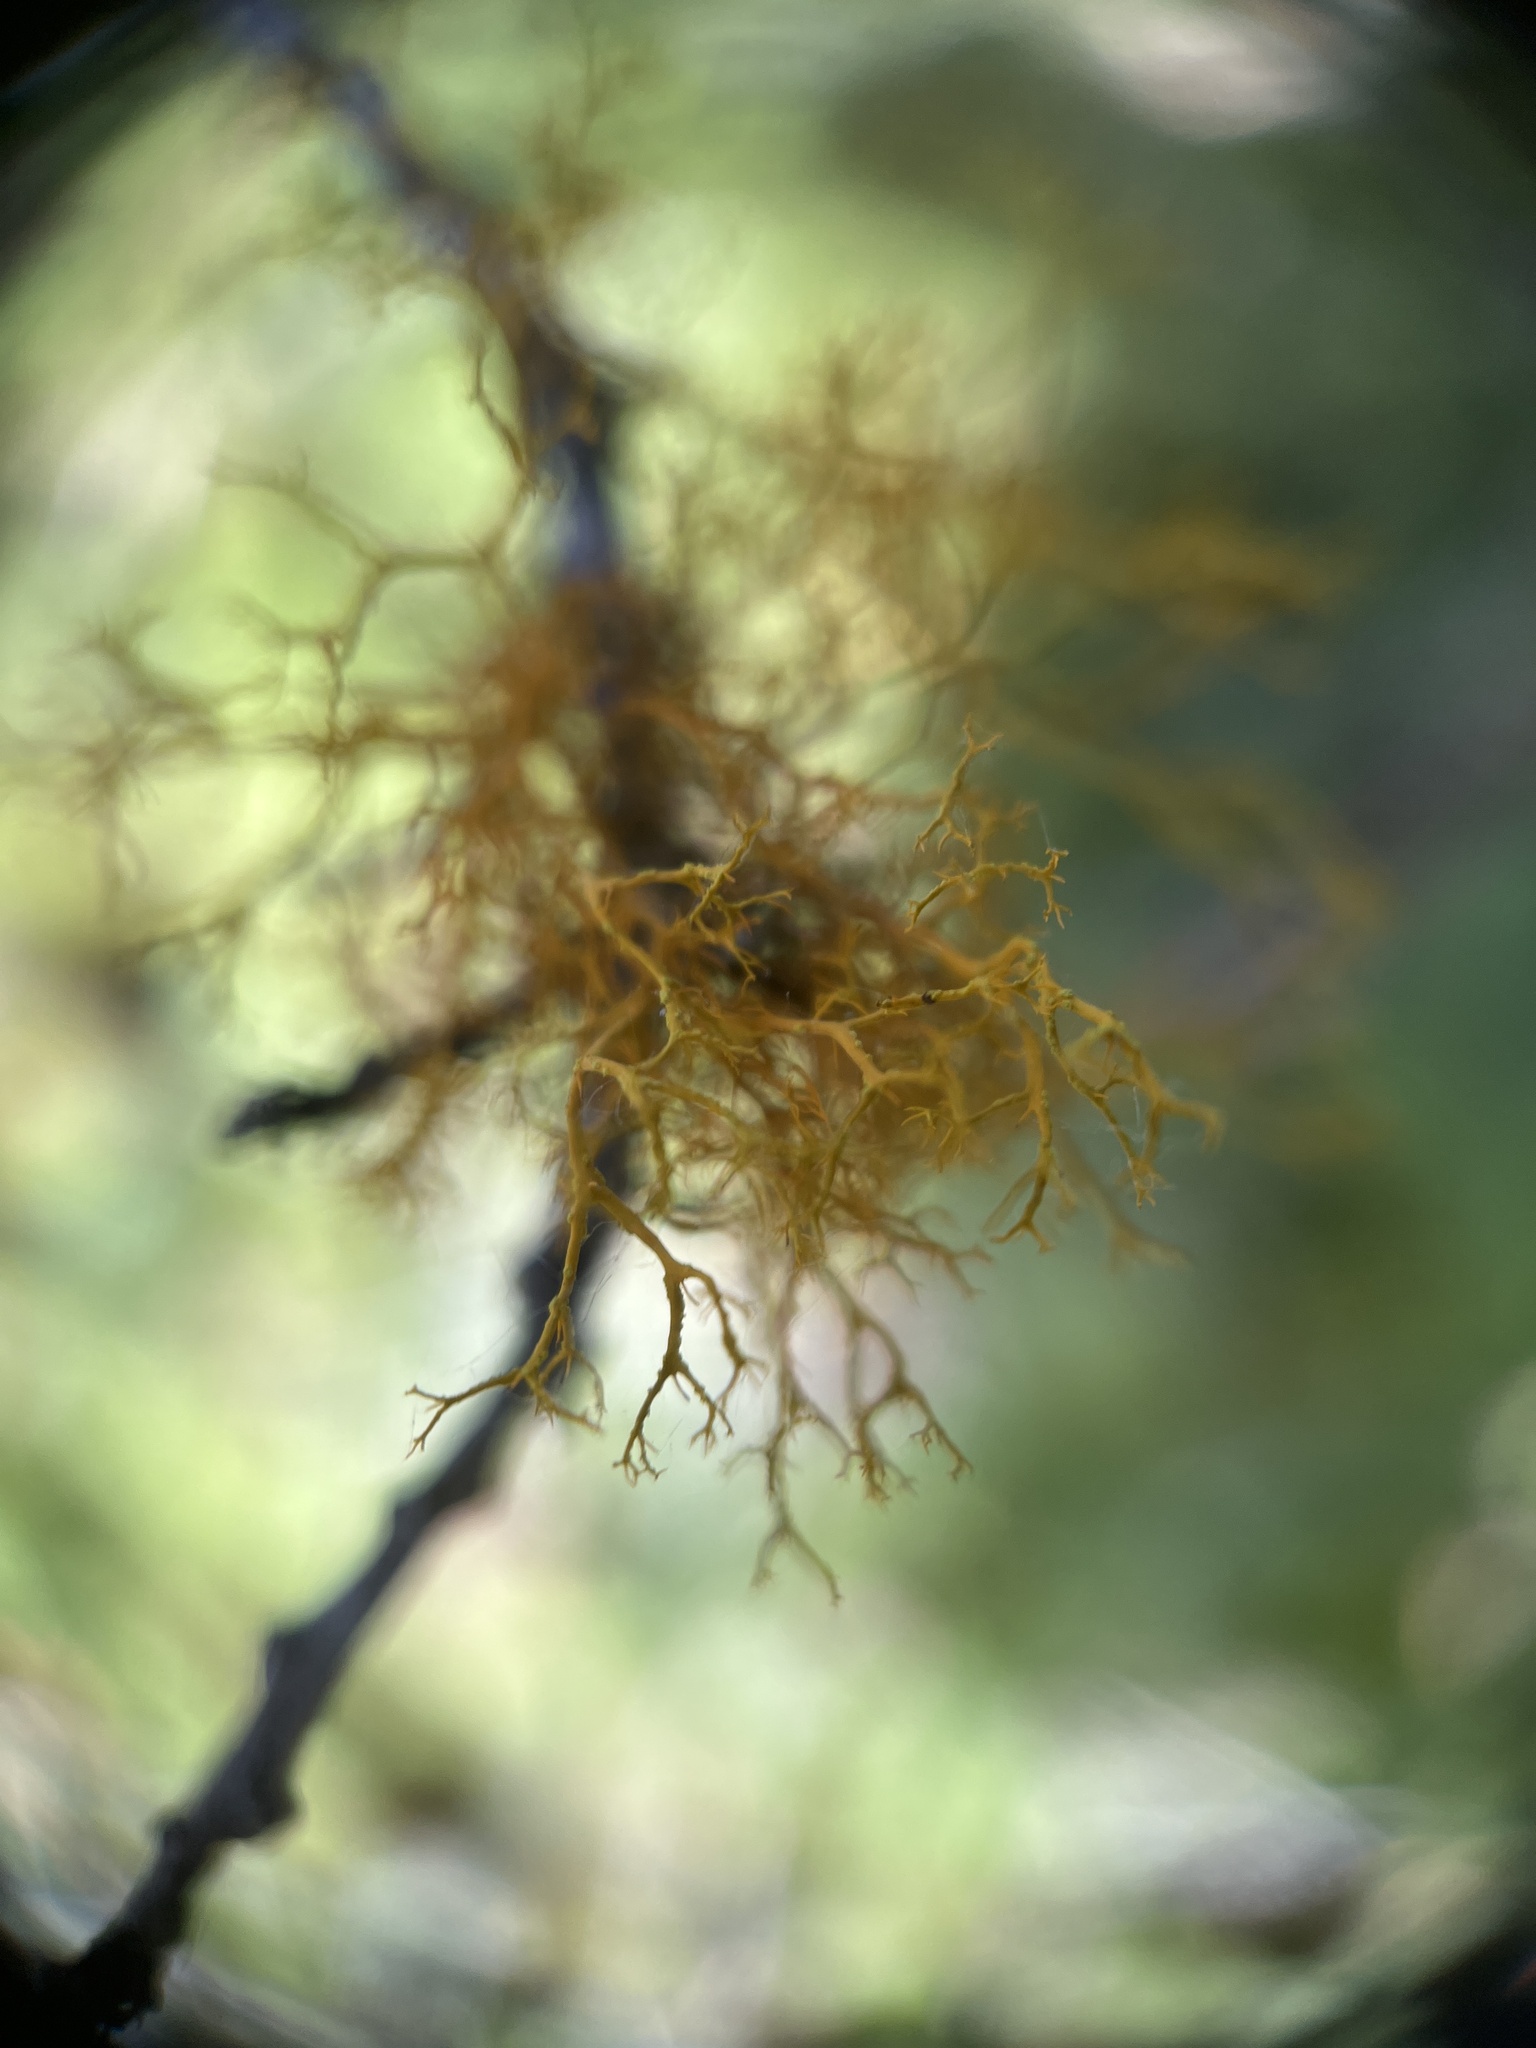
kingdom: Fungi
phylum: Ascomycota
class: Lecanoromycetes
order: Teloschistales
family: Teloschistaceae
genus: Teloschistes
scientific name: Teloschistes flavicans
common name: Golden hair-lichen
